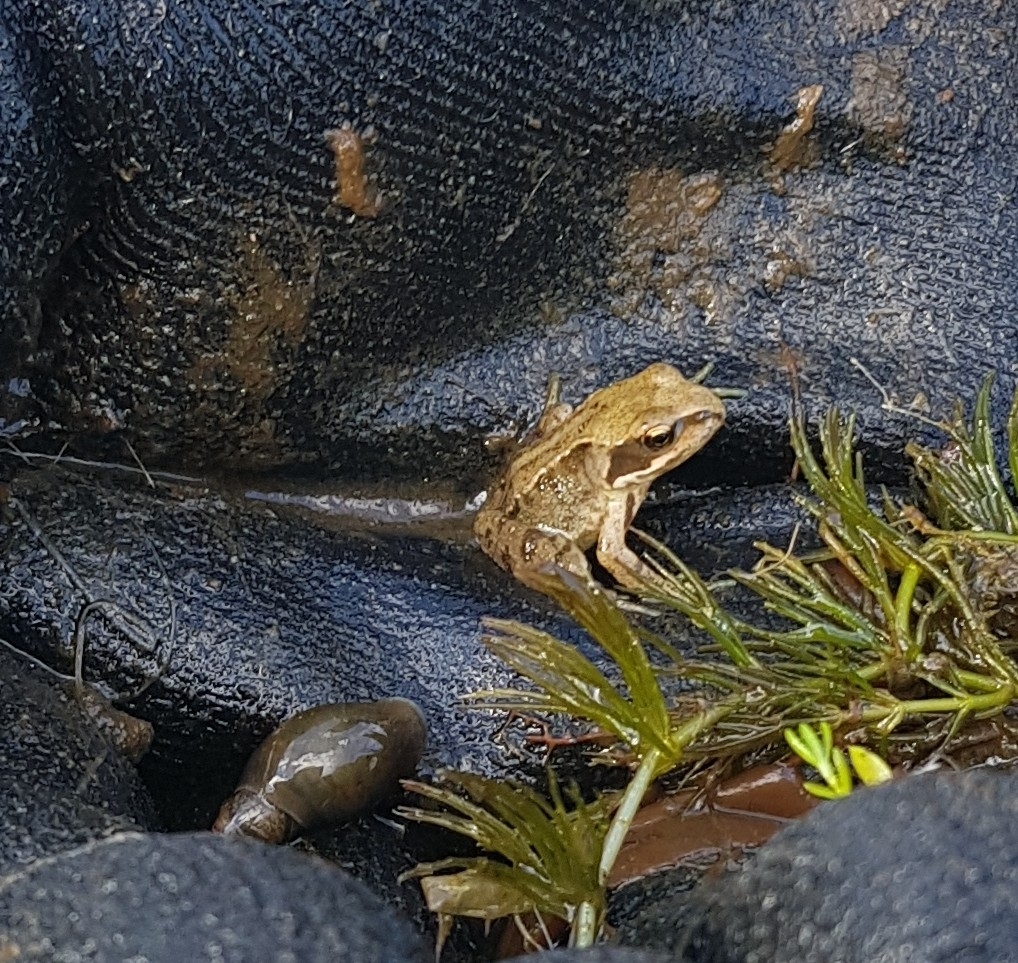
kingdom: Animalia
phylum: Chordata
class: Amphibia
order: Anura
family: Ranidae
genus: Rana
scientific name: Rana temporaria
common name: Common frog
